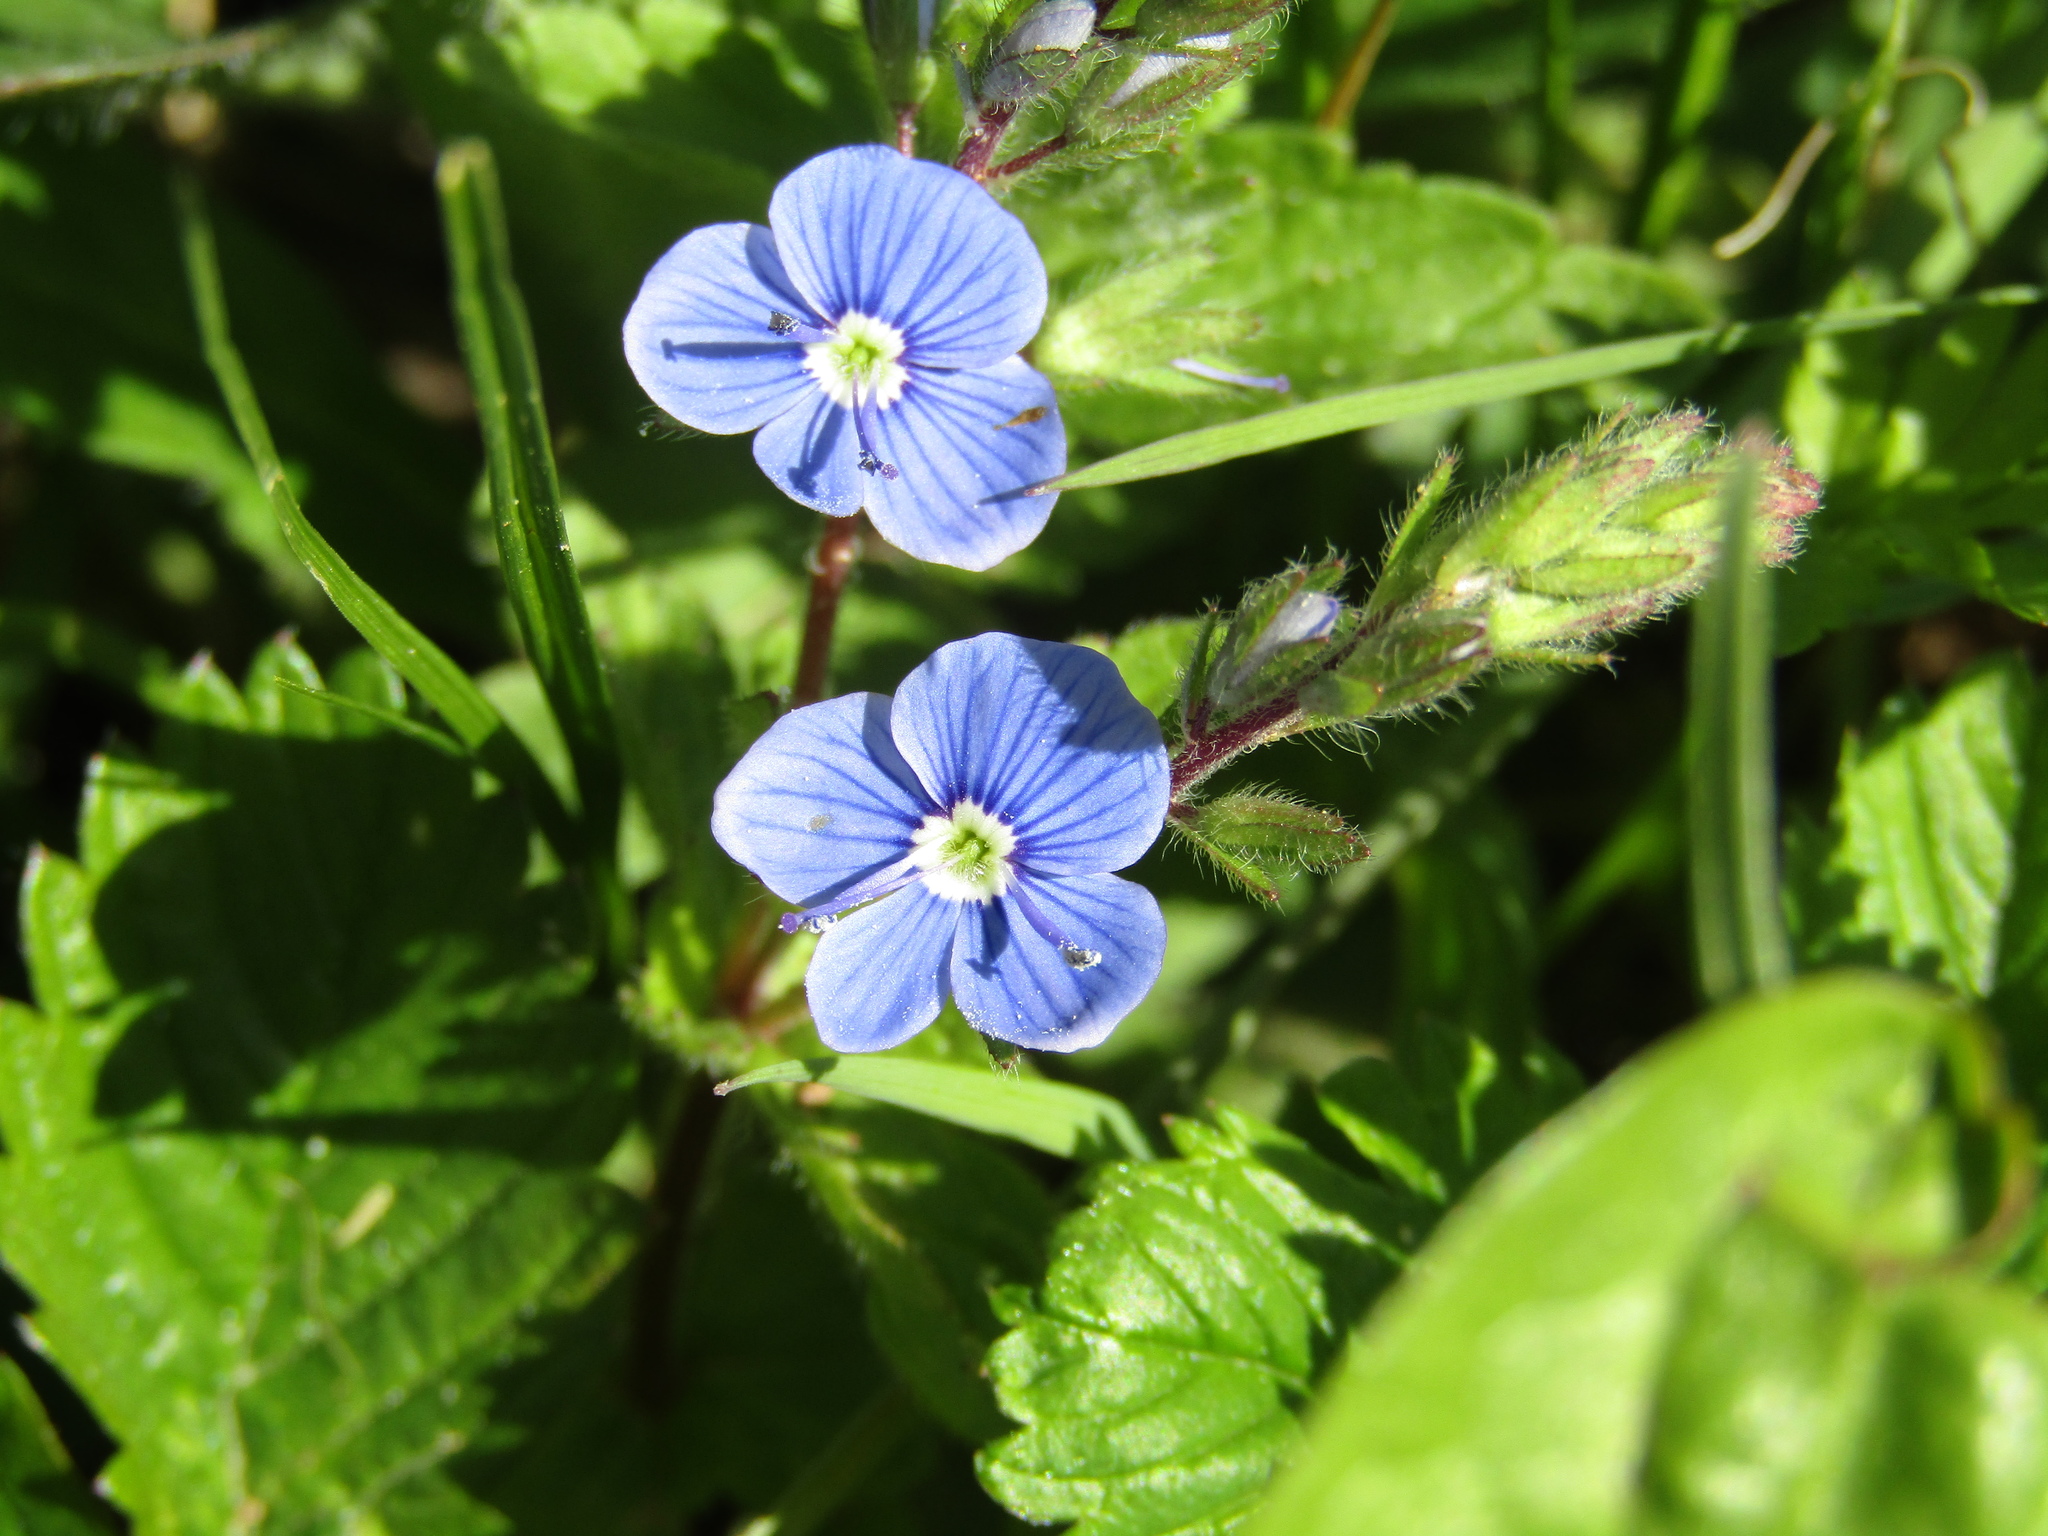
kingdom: Plantae
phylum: Tracheophyta
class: Magnoliopsida
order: Lamiales
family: Plantaginaceae
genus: Veronica
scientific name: Veronica chamaedrys
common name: Germander speedwell
